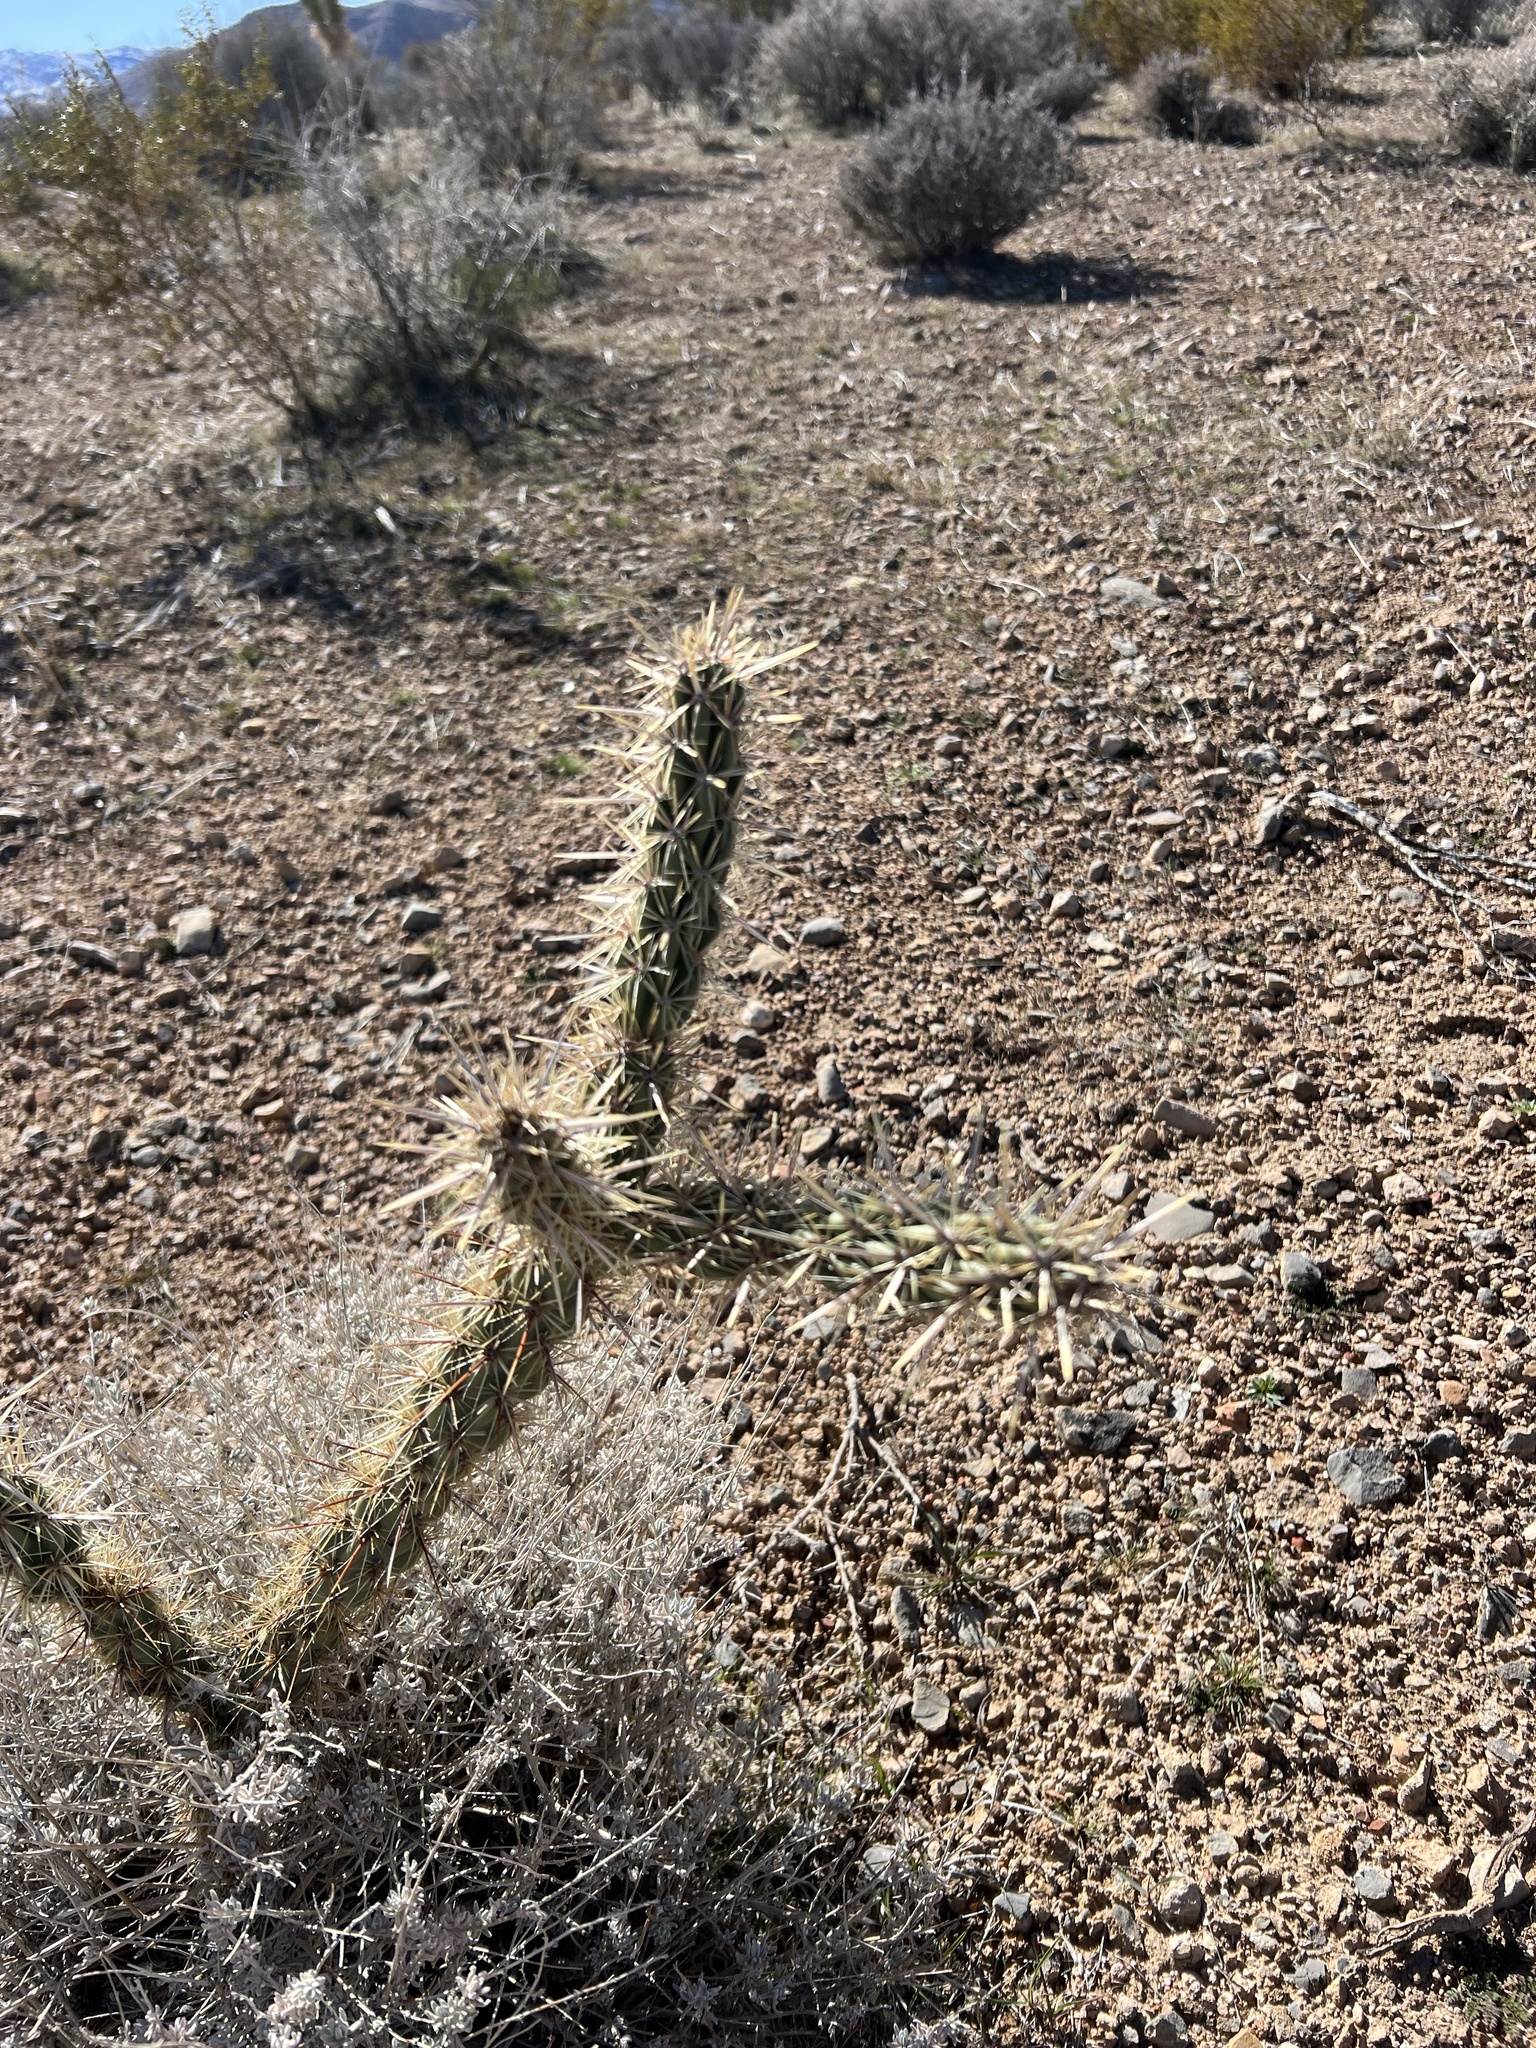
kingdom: Plantae
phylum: Tracheophyta
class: Magnoliopsida
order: Caryophyllales
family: Cactaceae
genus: Cylindropuntia
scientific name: Cylindropuntia acanthocarpa
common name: Buckhorn cholla
